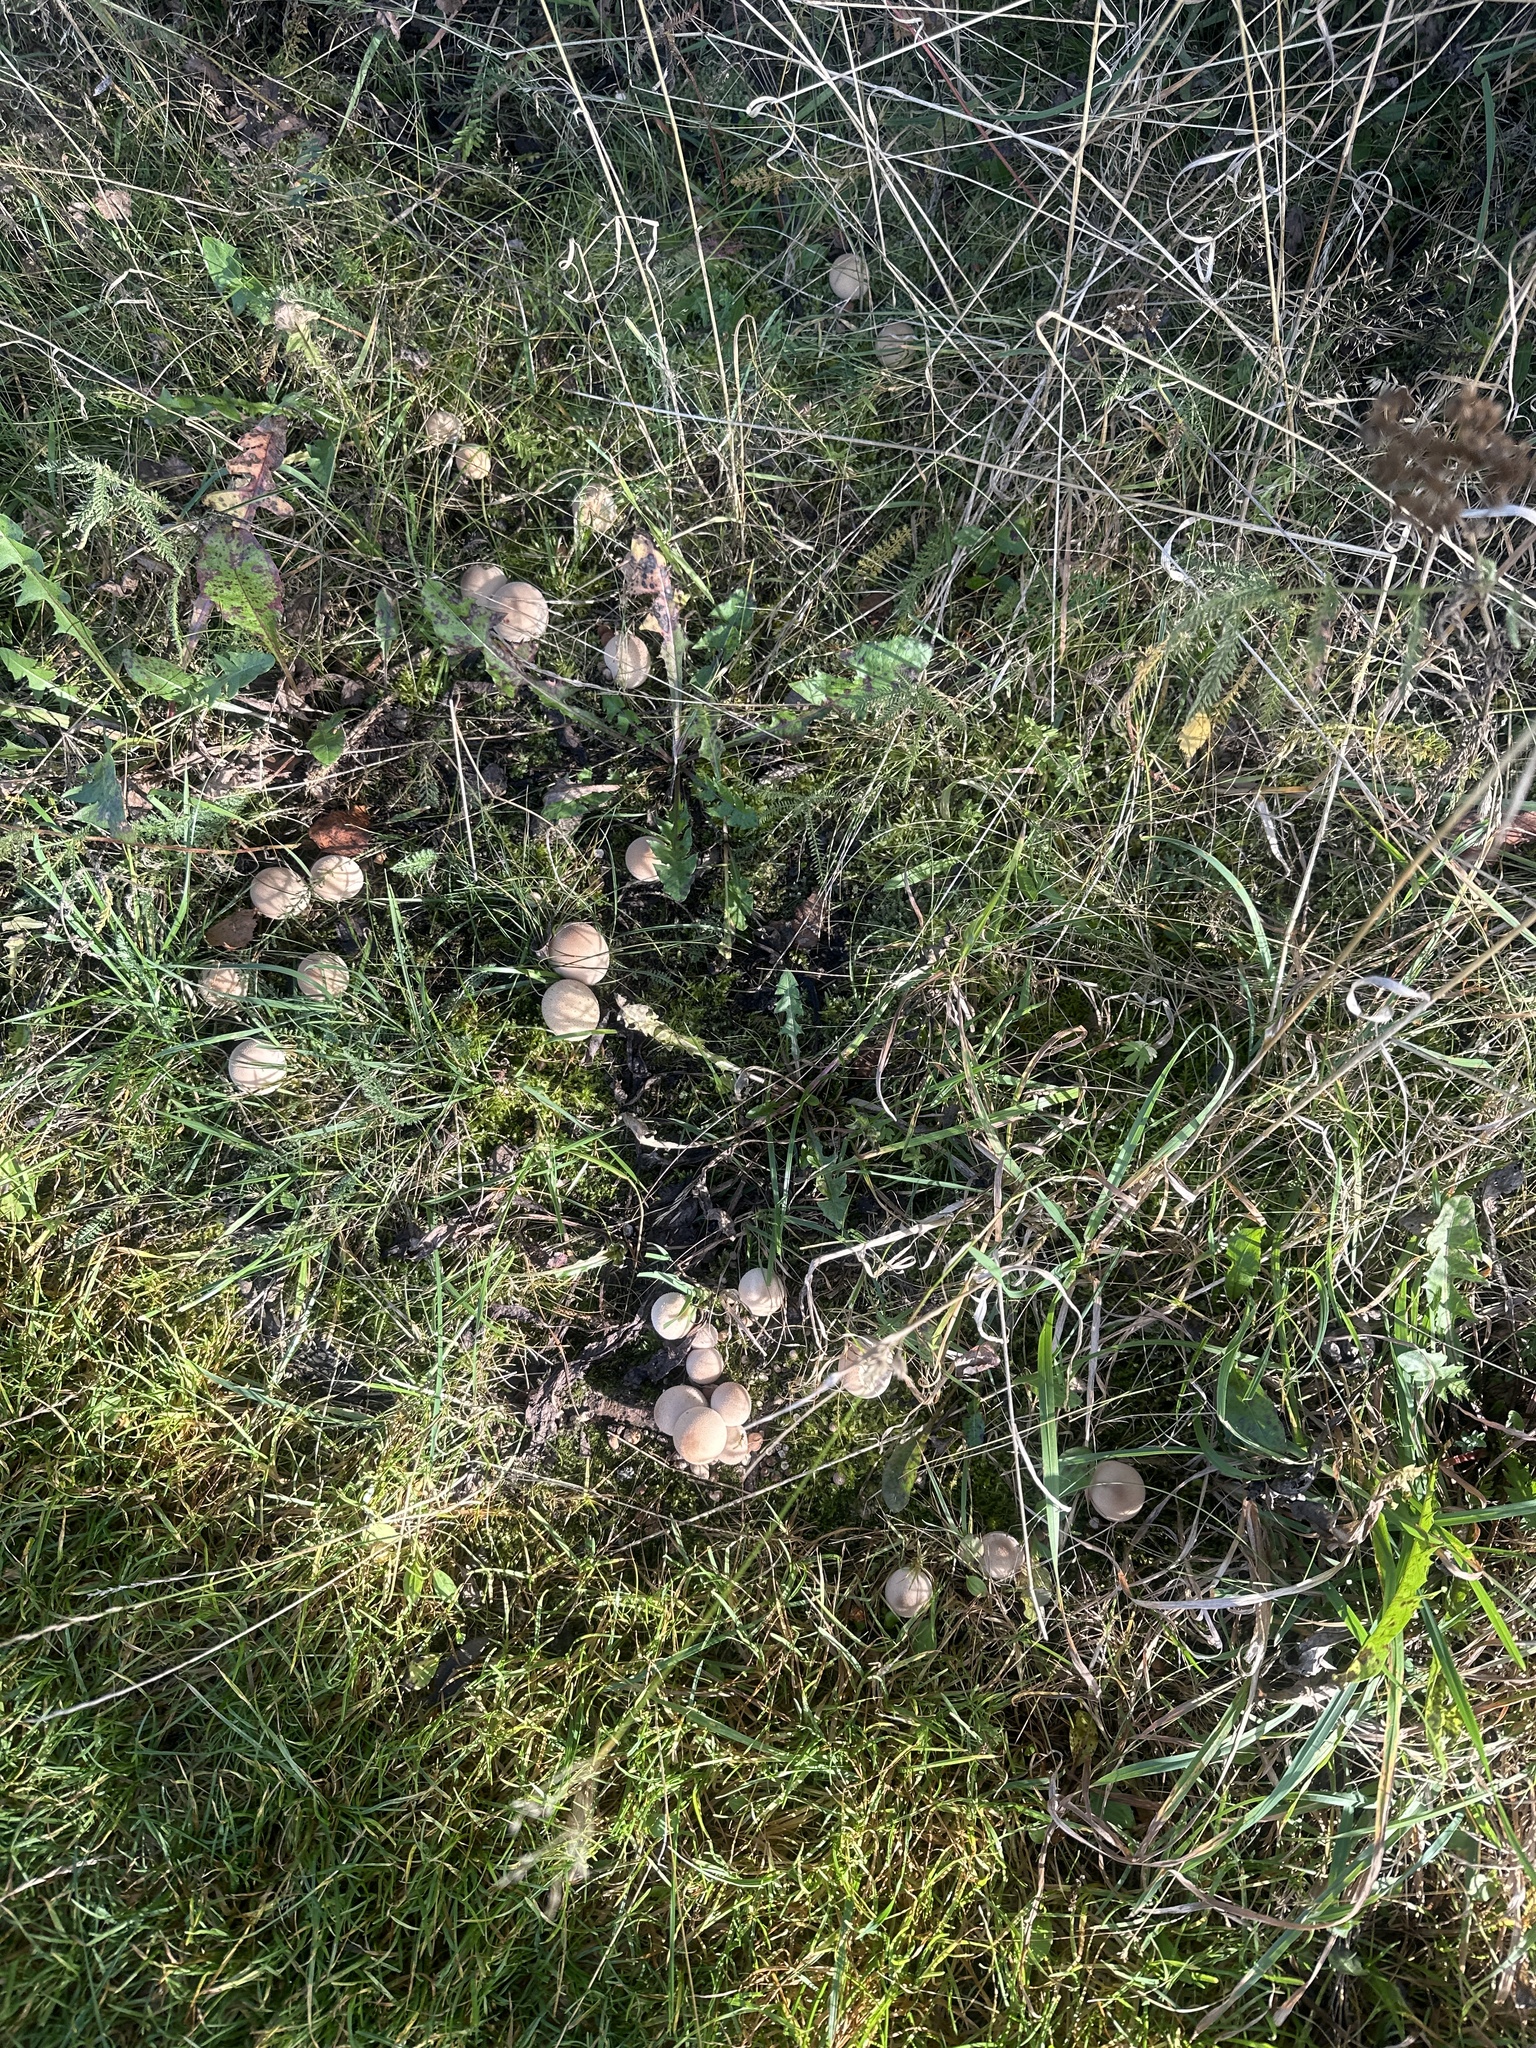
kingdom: Fungi
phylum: Basidiomycota
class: Agaricomycetes
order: Agaricales
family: Lycoperdaceae
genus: Lycoperdon
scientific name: Lycoperdon perlatum
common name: Common puffball
